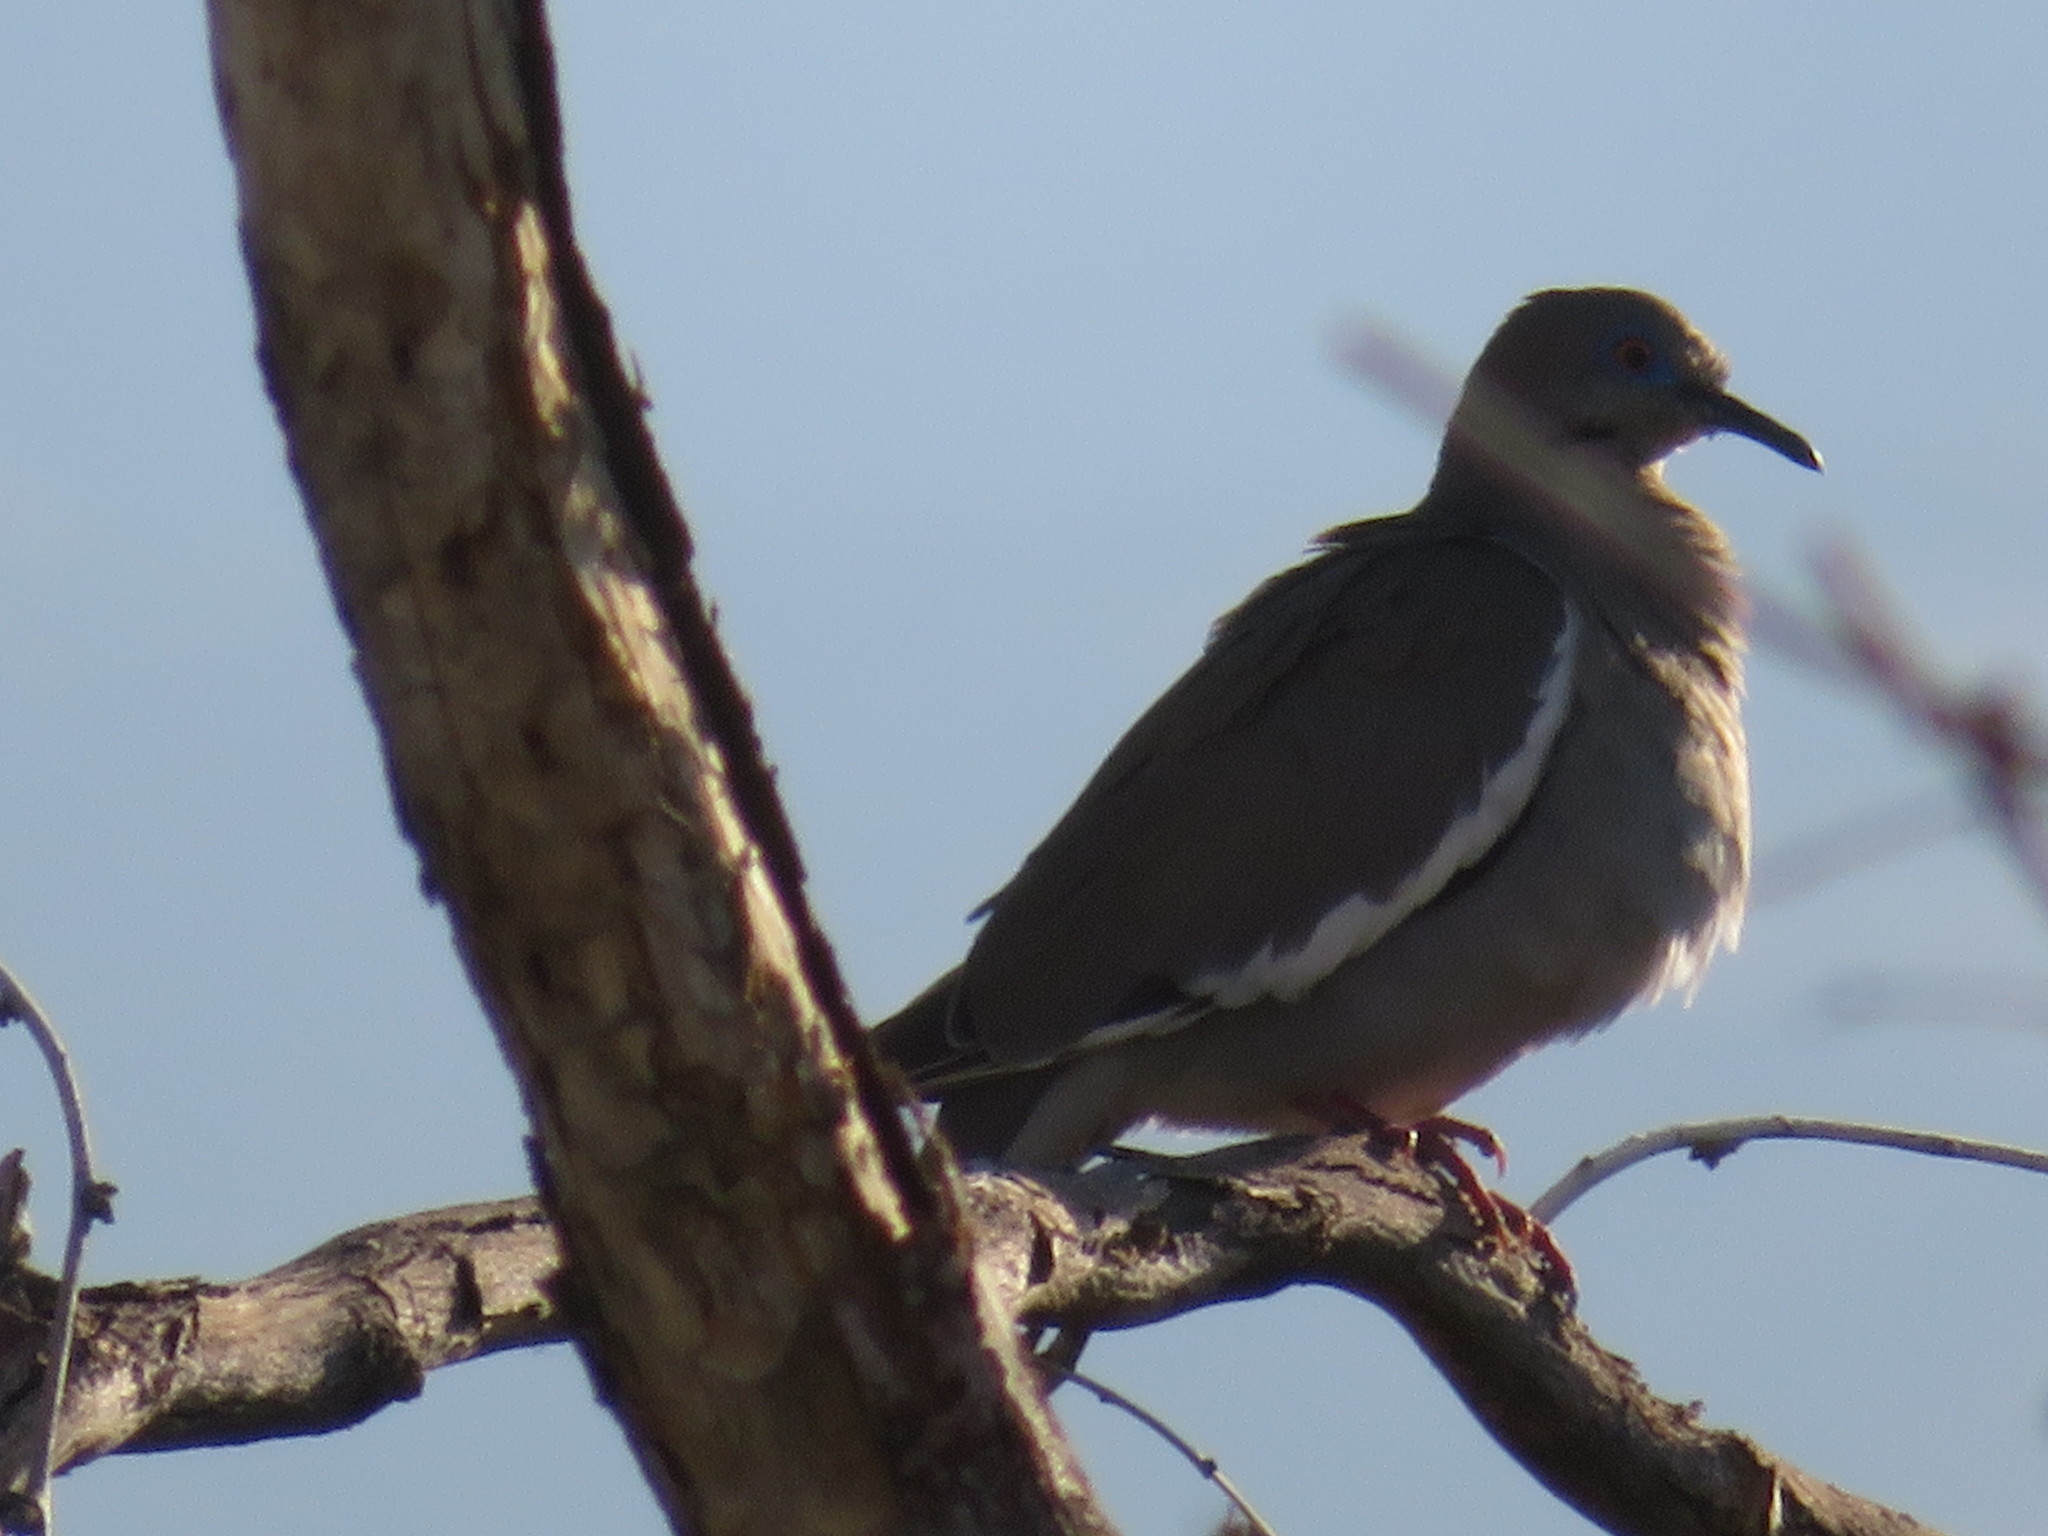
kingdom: Animalia
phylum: Chordata
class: Aves
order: Columbiformes
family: Columbidae
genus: Zenaida
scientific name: Zenaida asiatica
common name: White-winged dove
